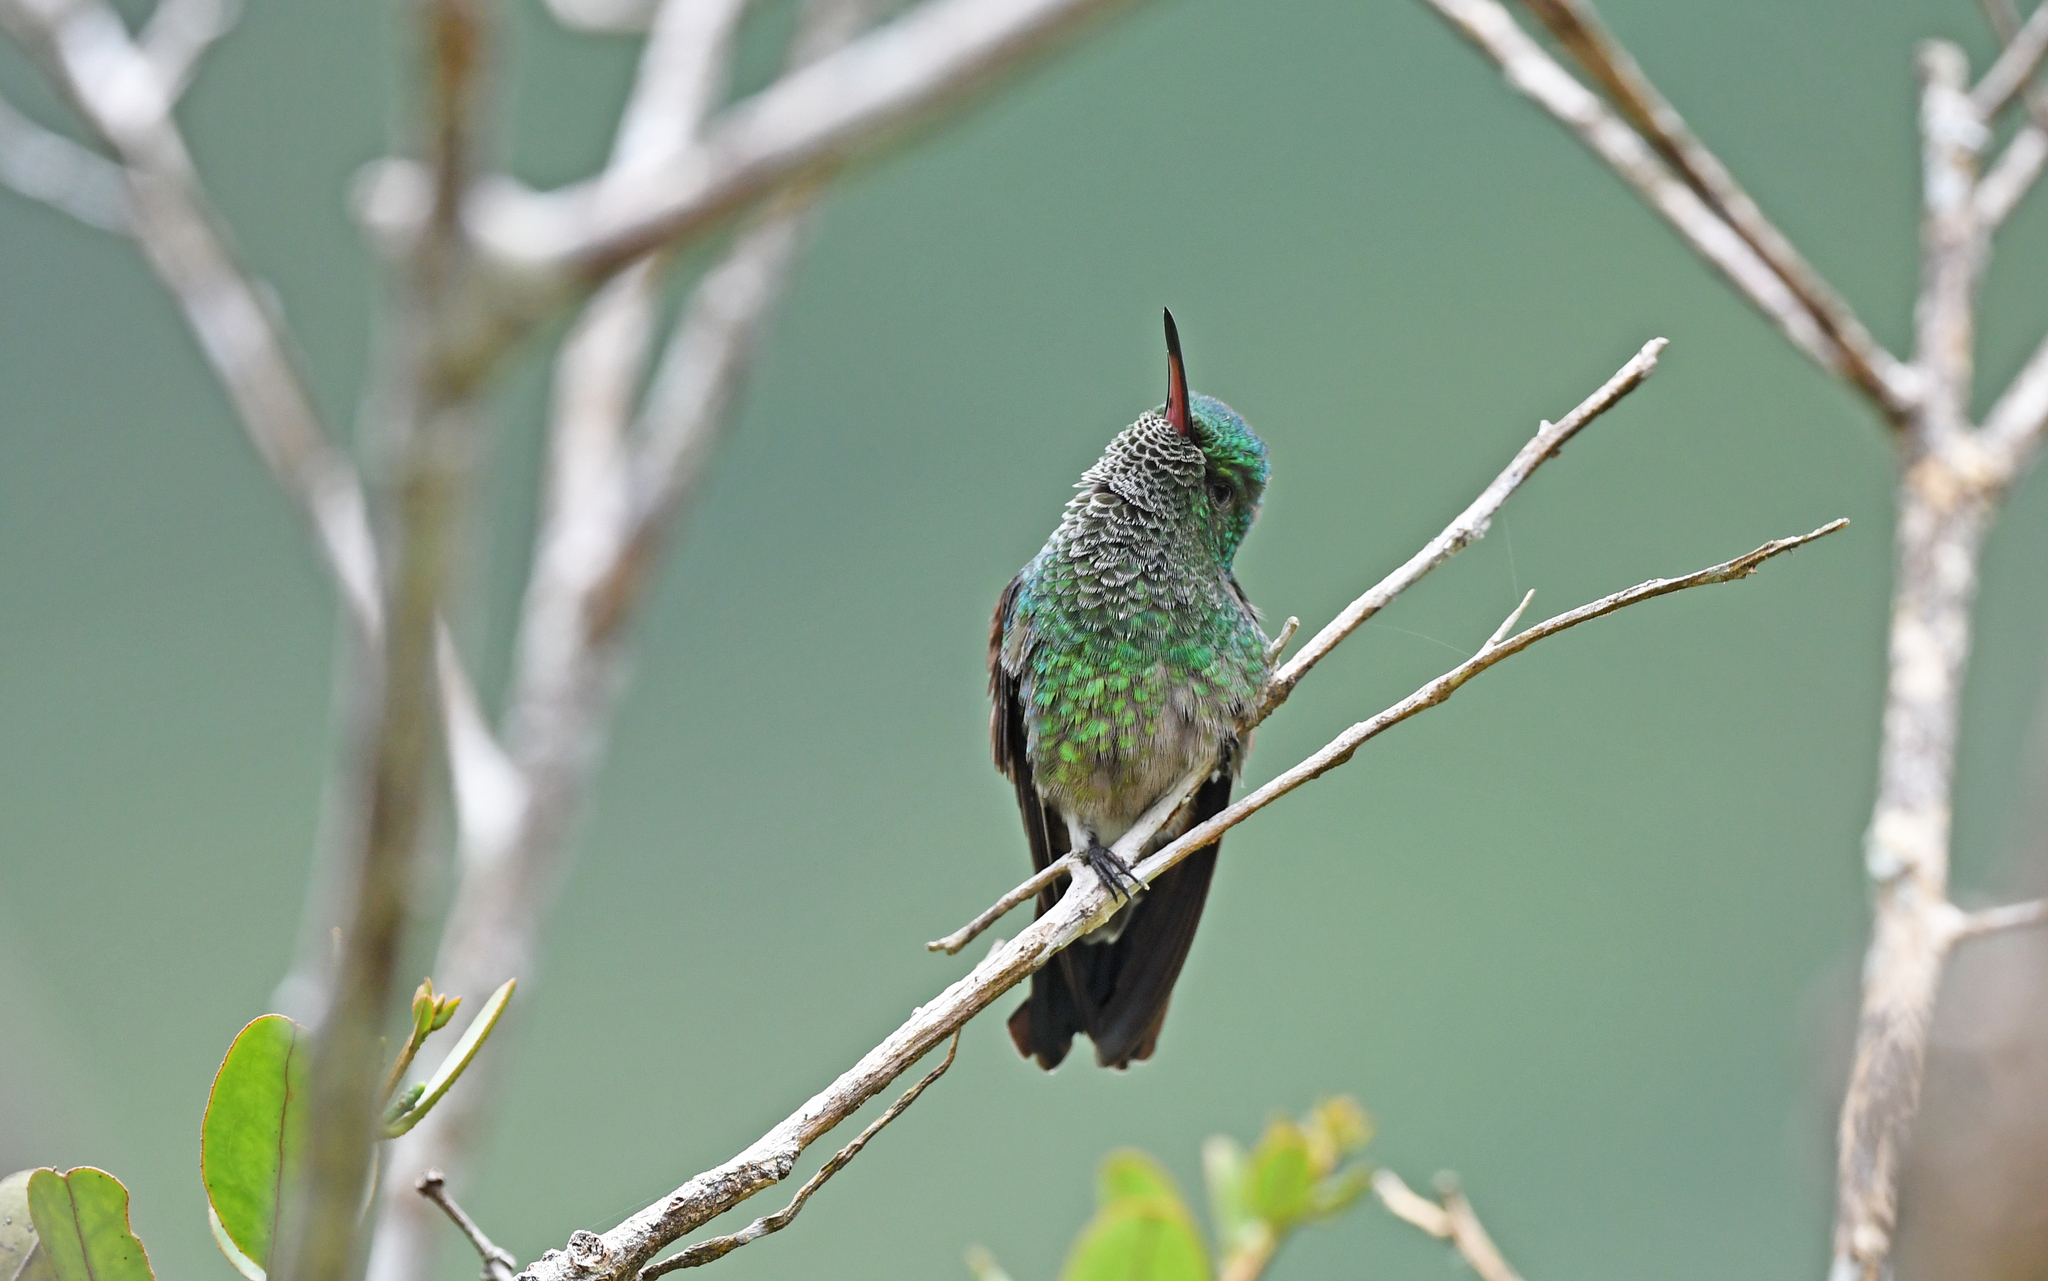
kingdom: Animalia
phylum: Chordata
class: Aves
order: Apodiformes
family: Trochilidae
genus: Saucerottia
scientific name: Saucerottia saucerottei
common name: Steely-vented hummingbird
